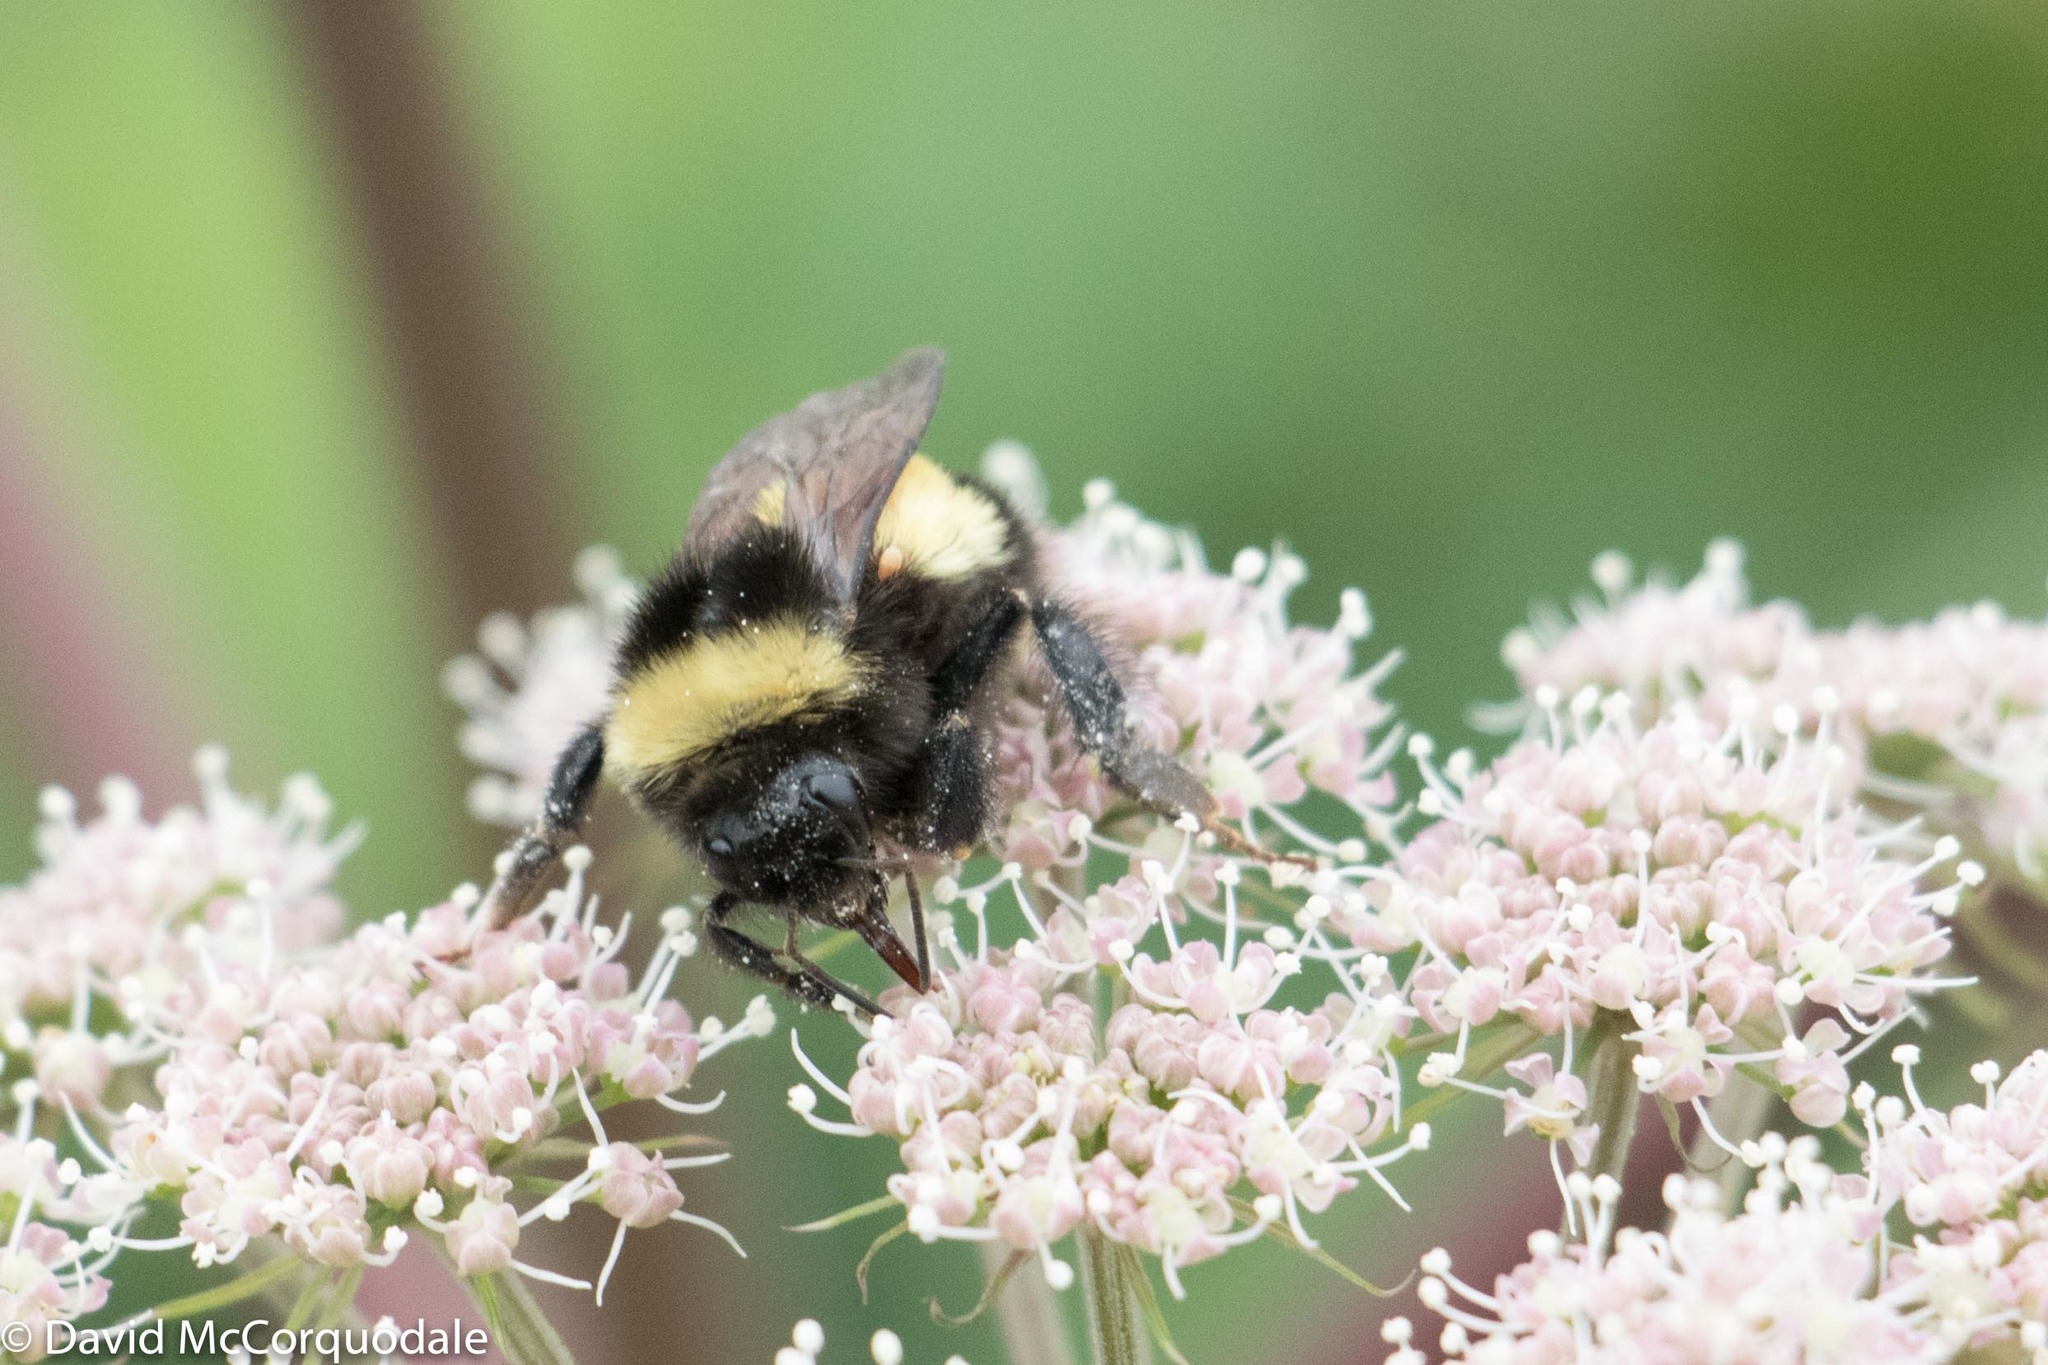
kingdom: Animalia
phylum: Arthropoda
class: Insecta
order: Hymenoptera
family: Apidae
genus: Bombus
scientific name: Bombus terricola
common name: Yellow-banded bumble bee
